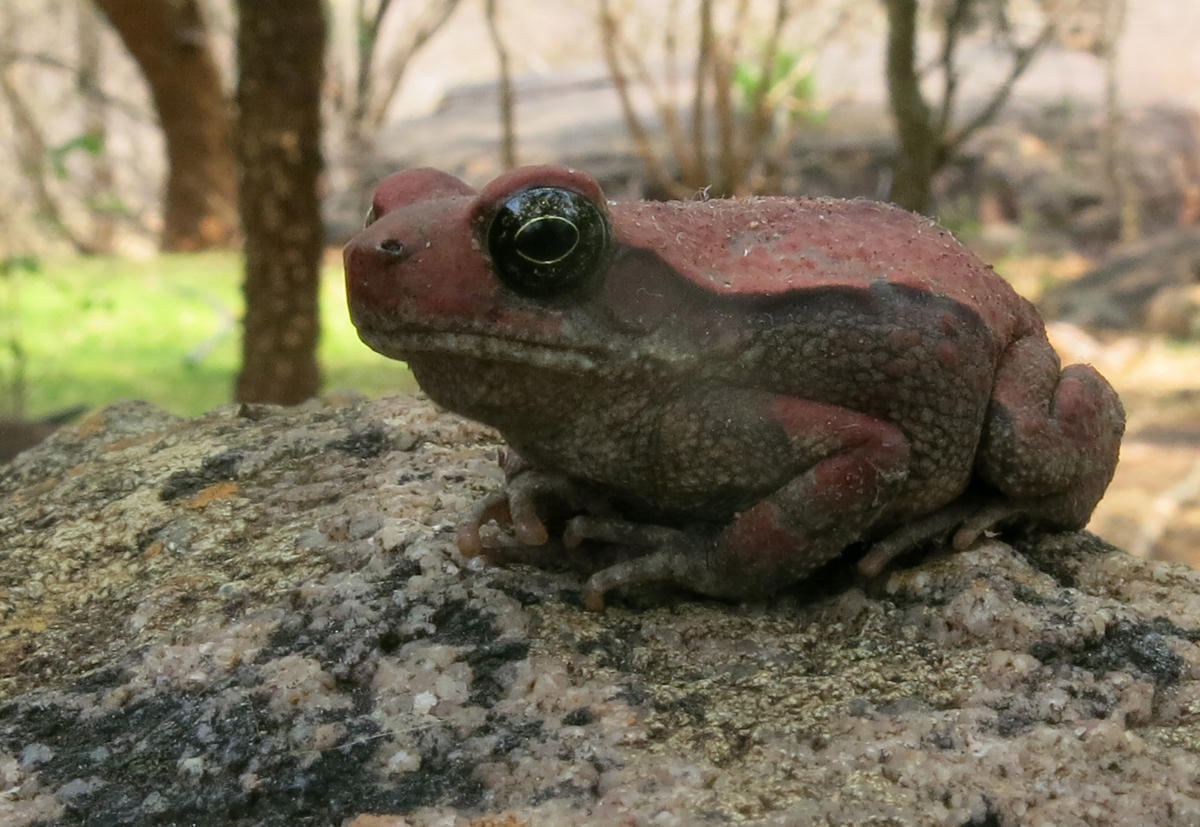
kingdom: Animalia
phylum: Chordata
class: Amphibia
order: Anura
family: Bufonidae
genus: Schismaderma
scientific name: Schismaderma carens
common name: African split-skin toad
